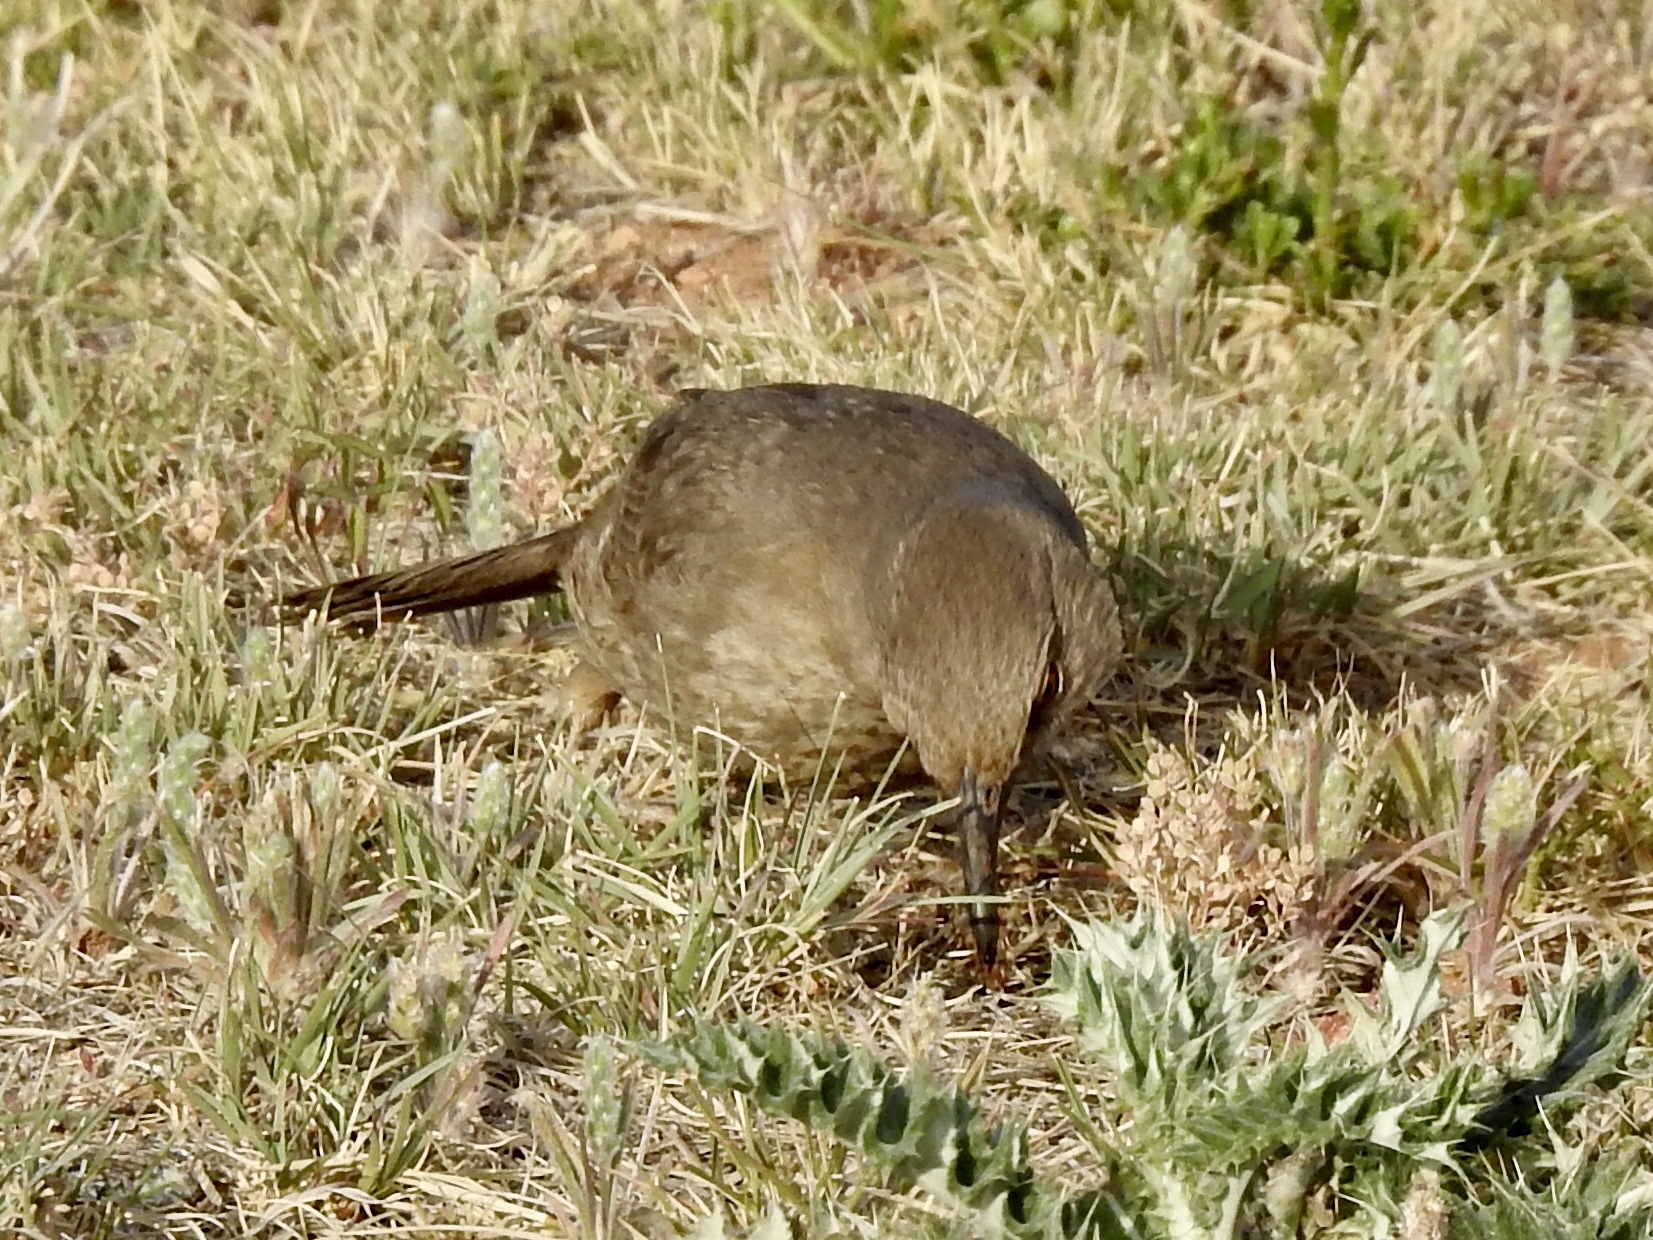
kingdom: Animalia
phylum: Chordata
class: Aves
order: Passeriformes
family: Mimidae
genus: Toxostoma
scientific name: Toxostoma curvirostre
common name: Curve-billed thrasher
